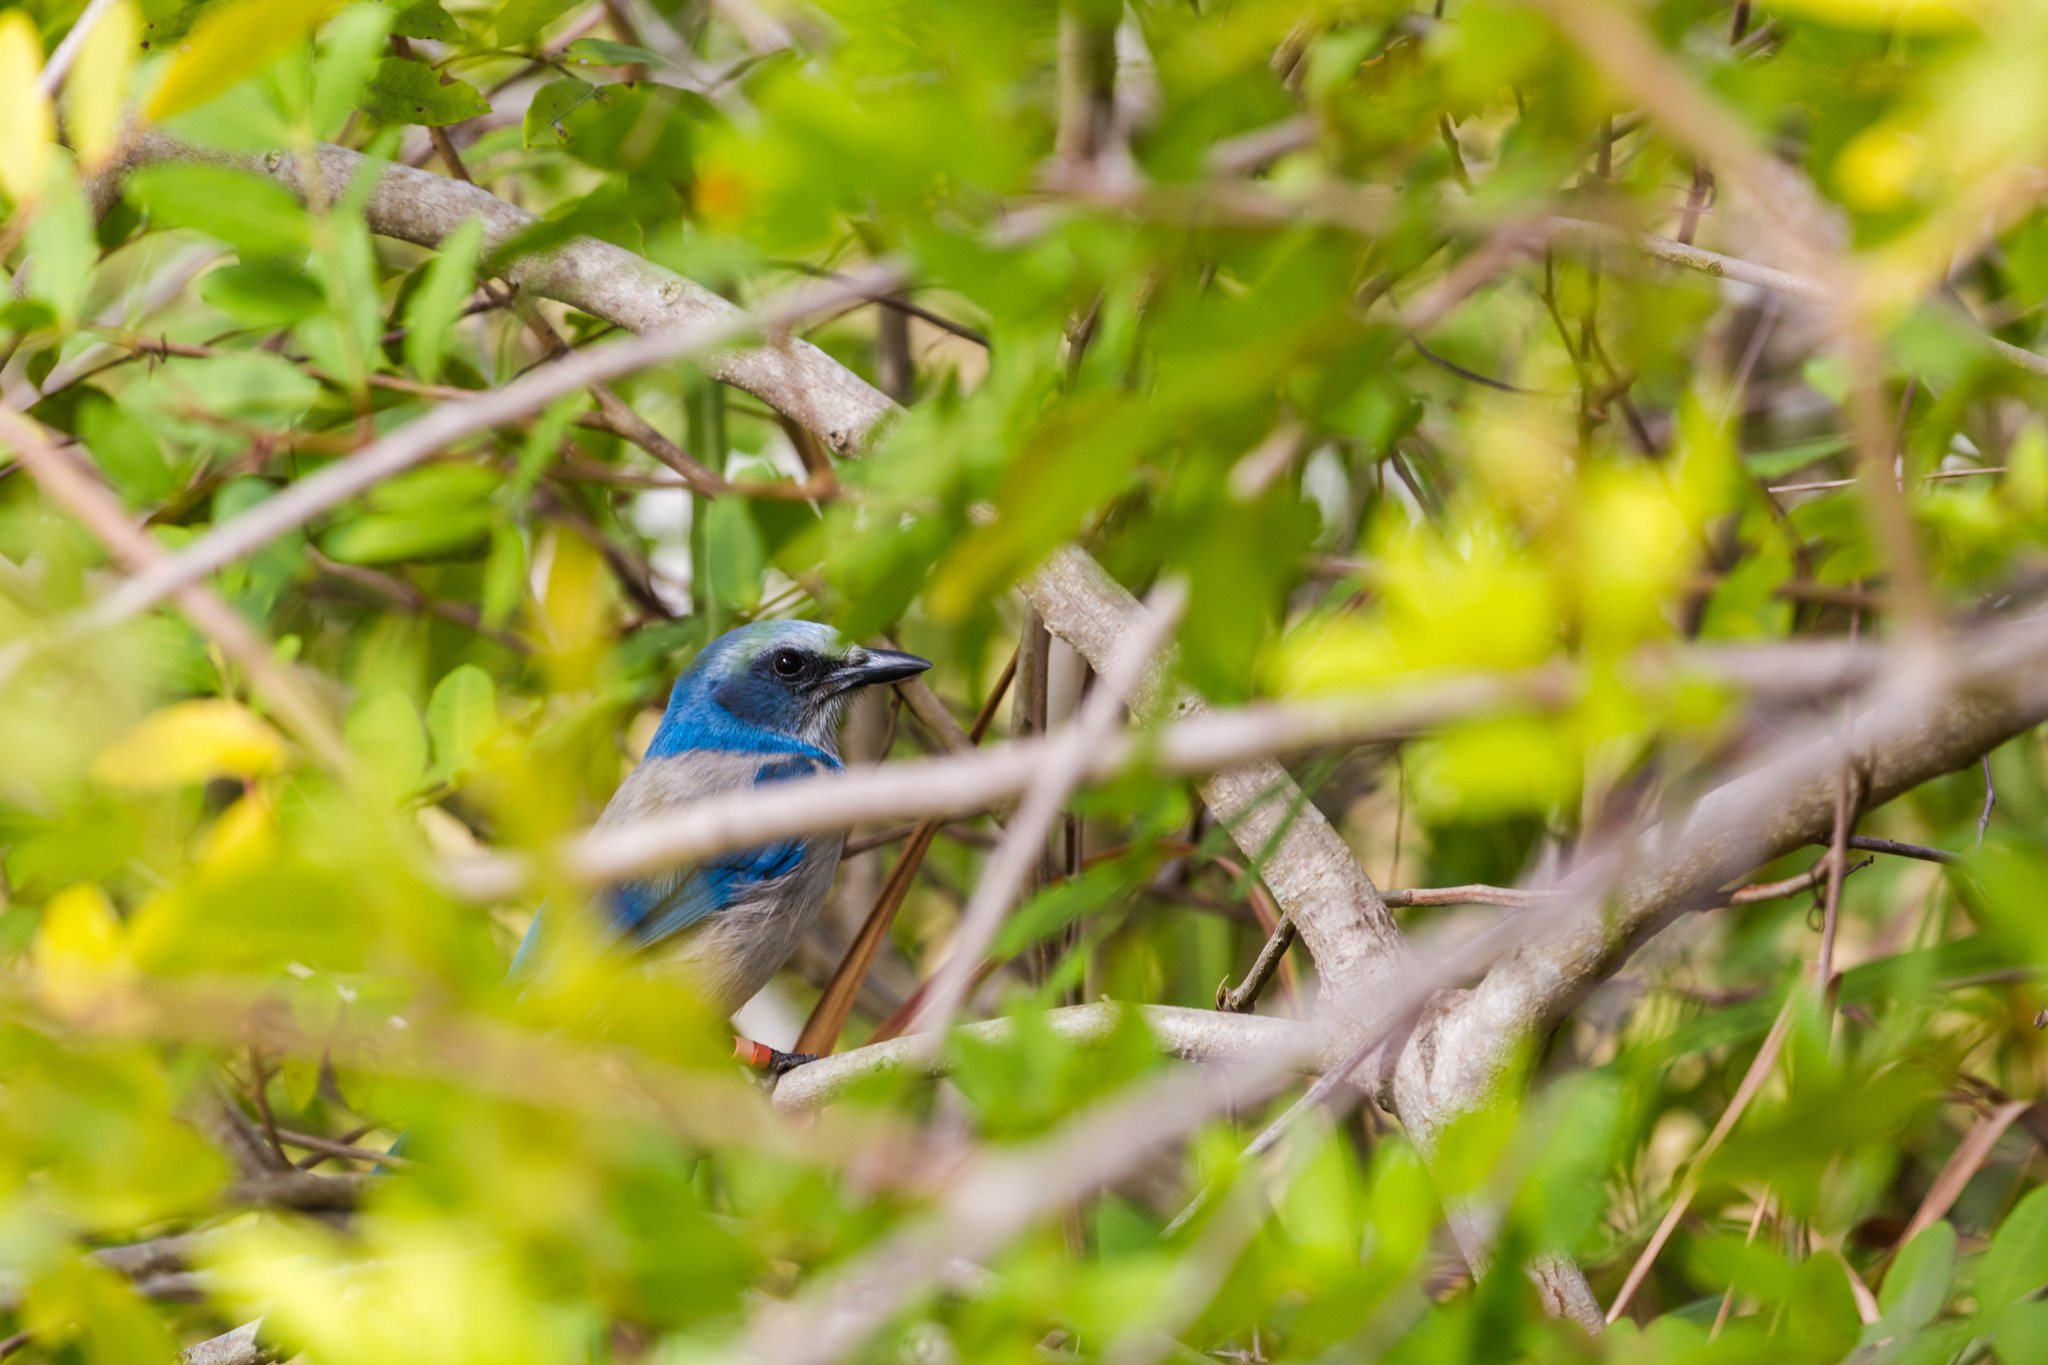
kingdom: Animalia
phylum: Chordata
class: Aves
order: Passeriformes
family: Corvidae
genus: Aphelocoma
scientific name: Aphelocoma coerulescens
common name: Florida scrub jay
